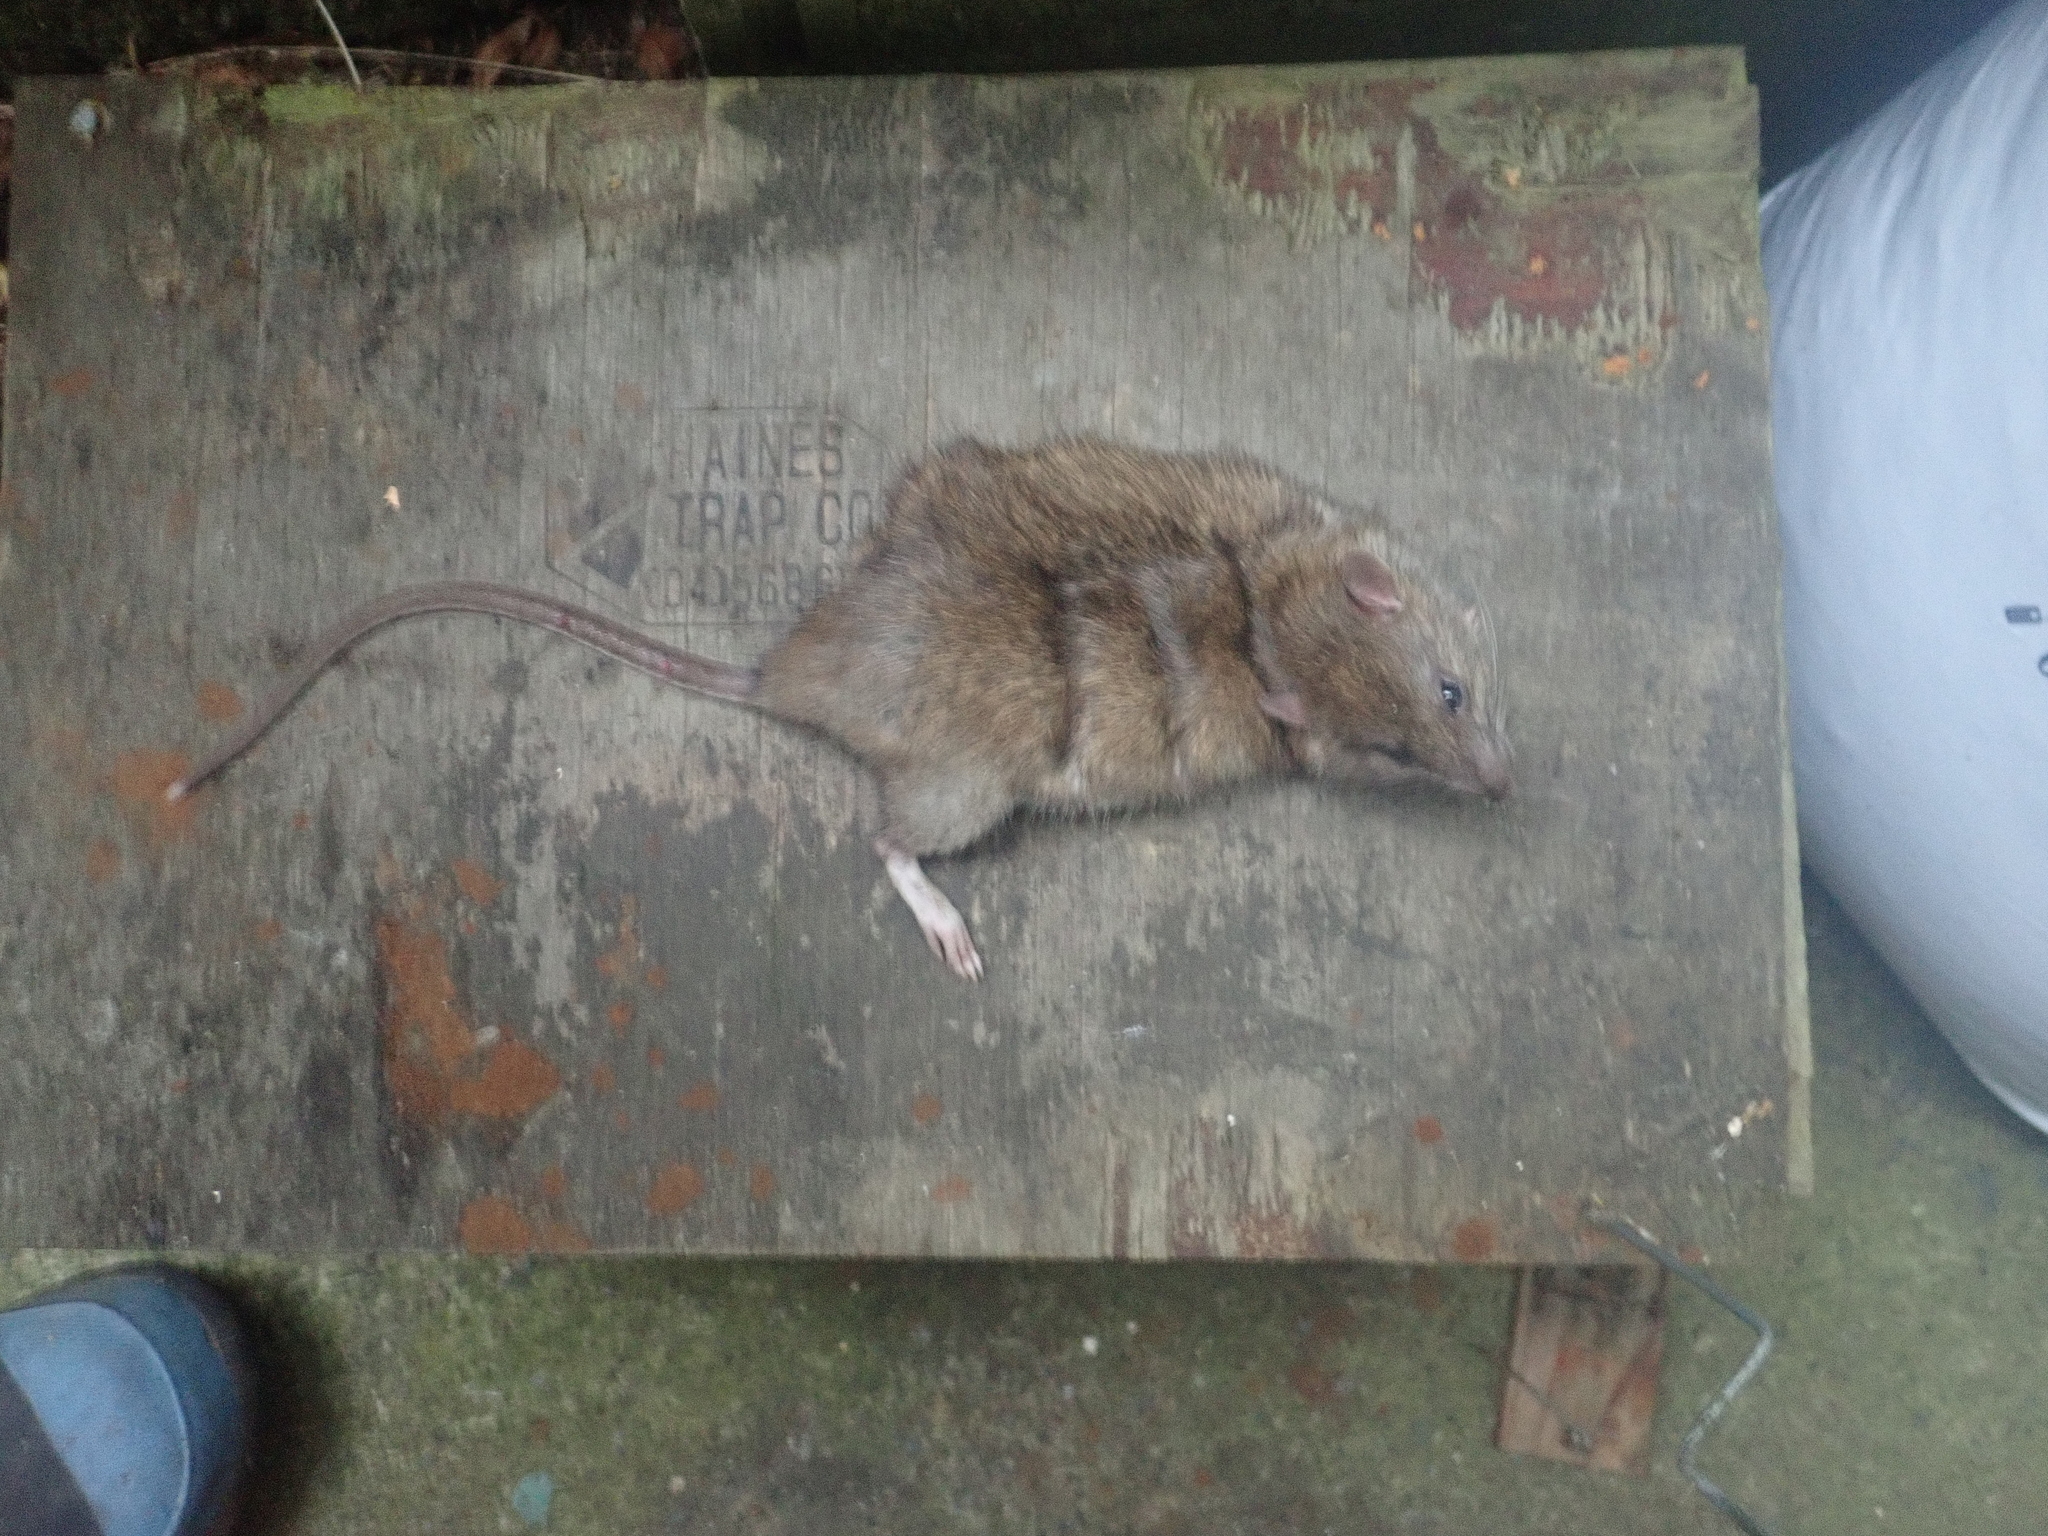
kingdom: Animalia
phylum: Chordata
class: Mammalia
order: Rodentia
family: Muridae
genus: Rattus
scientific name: Rattus norvegicus
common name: Brown rat
